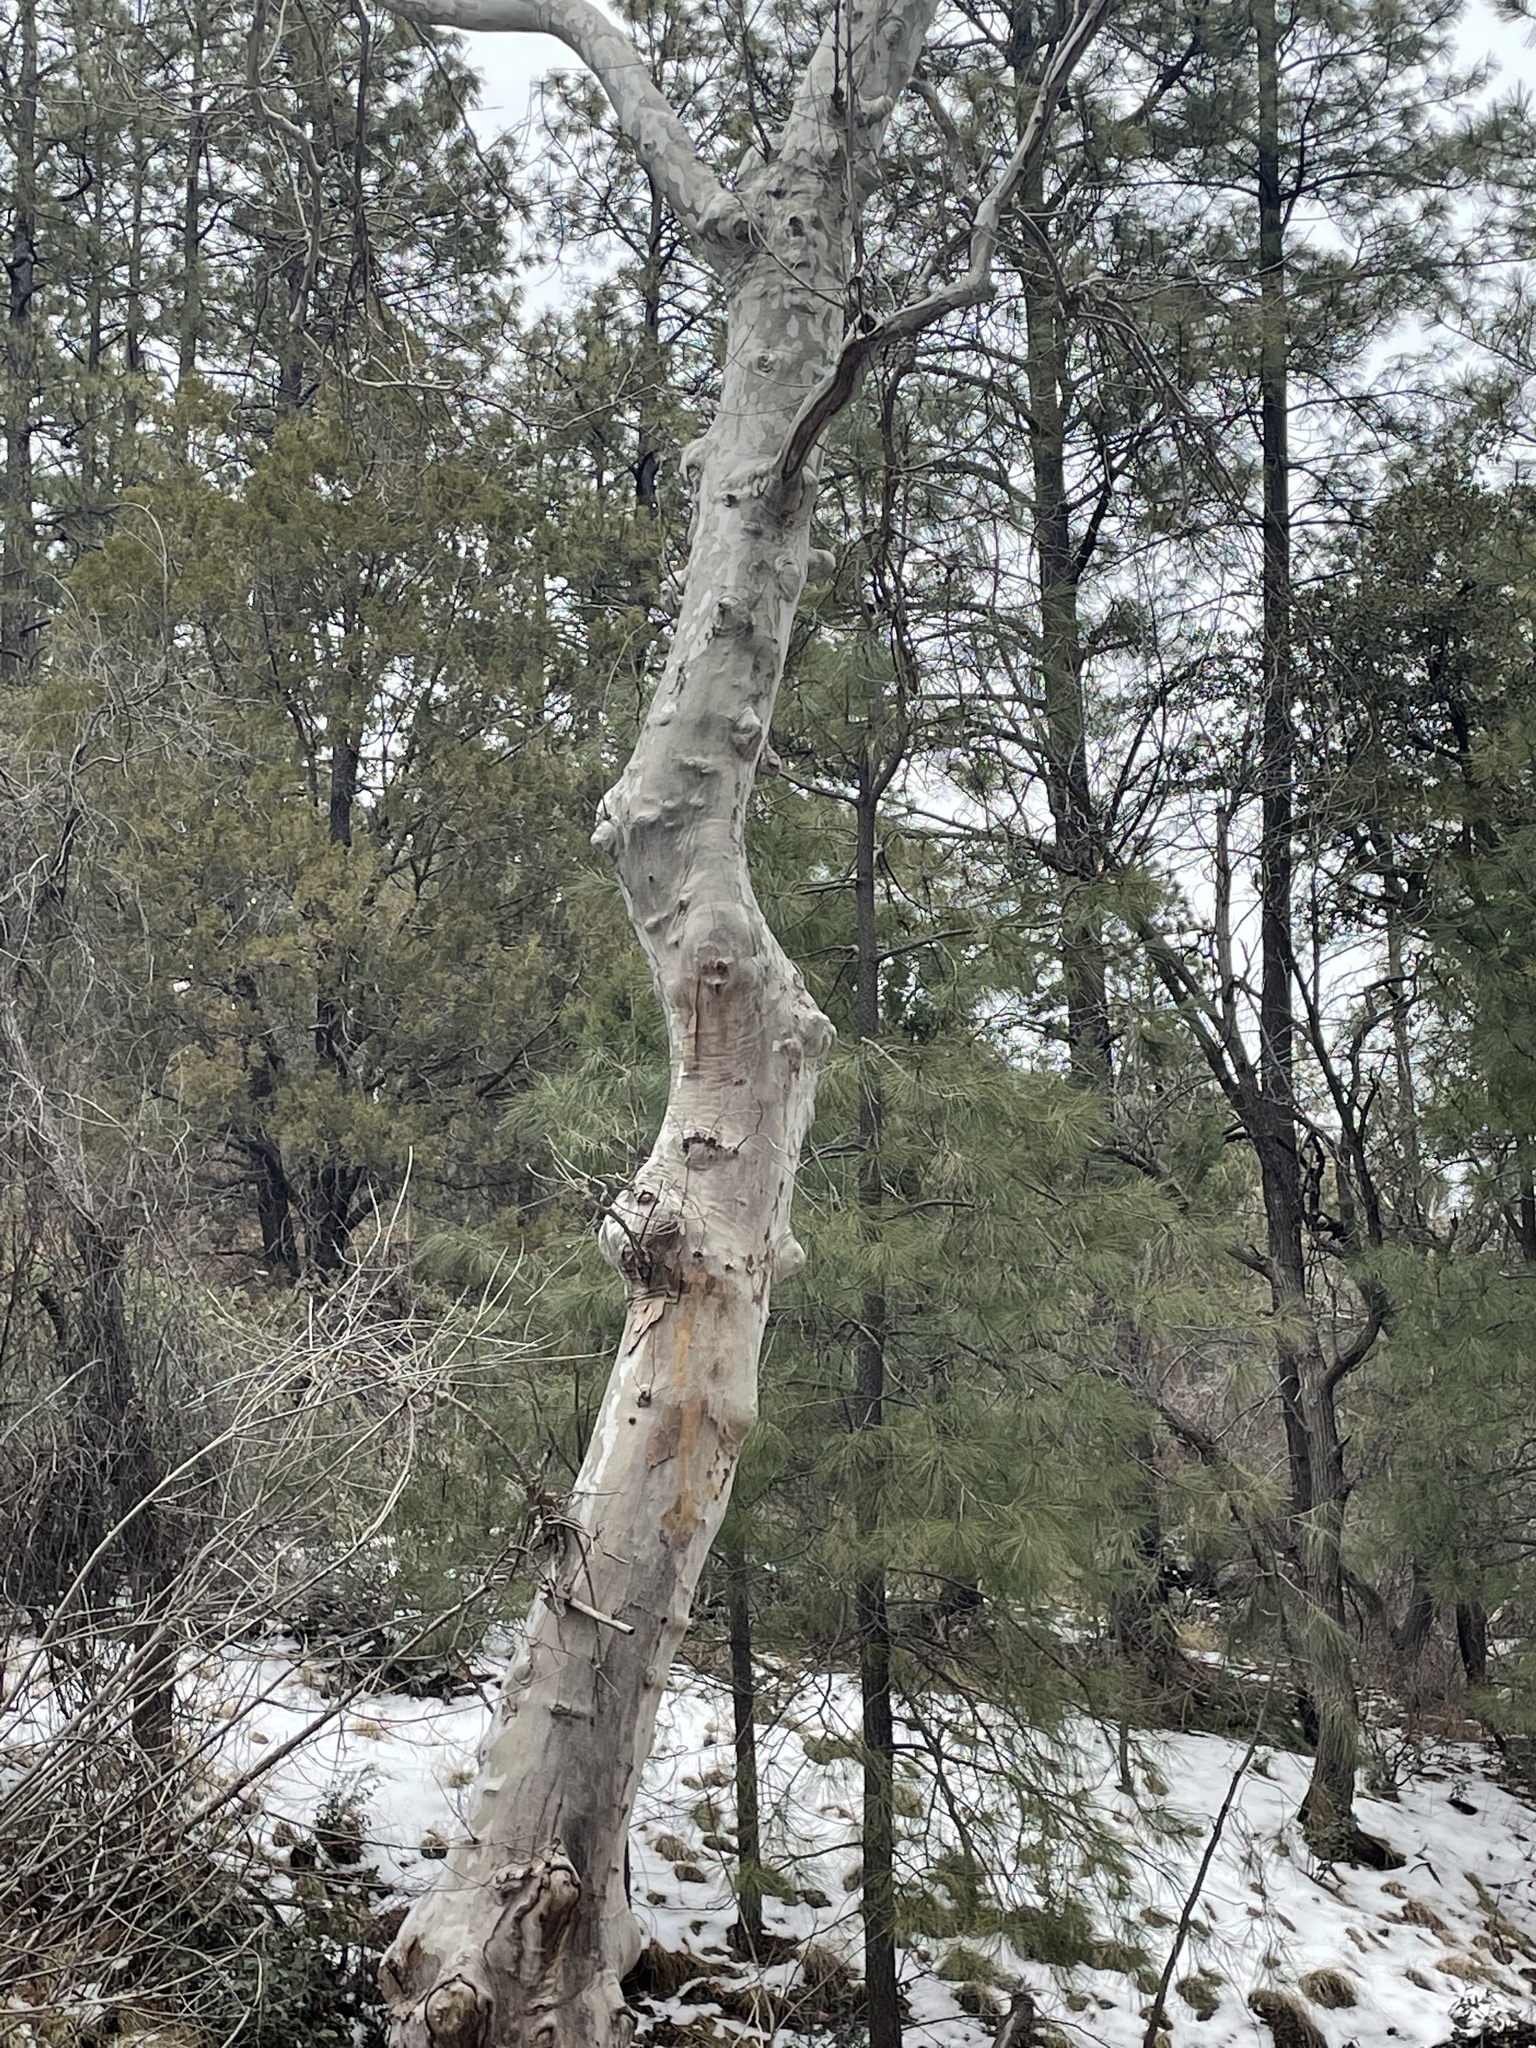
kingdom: Plantae
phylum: Tracheophyta
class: Magnoliopsida
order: Proteales
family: Platanaceae
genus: Platanus
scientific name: Platanus wrightii
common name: Arizona sycamore
